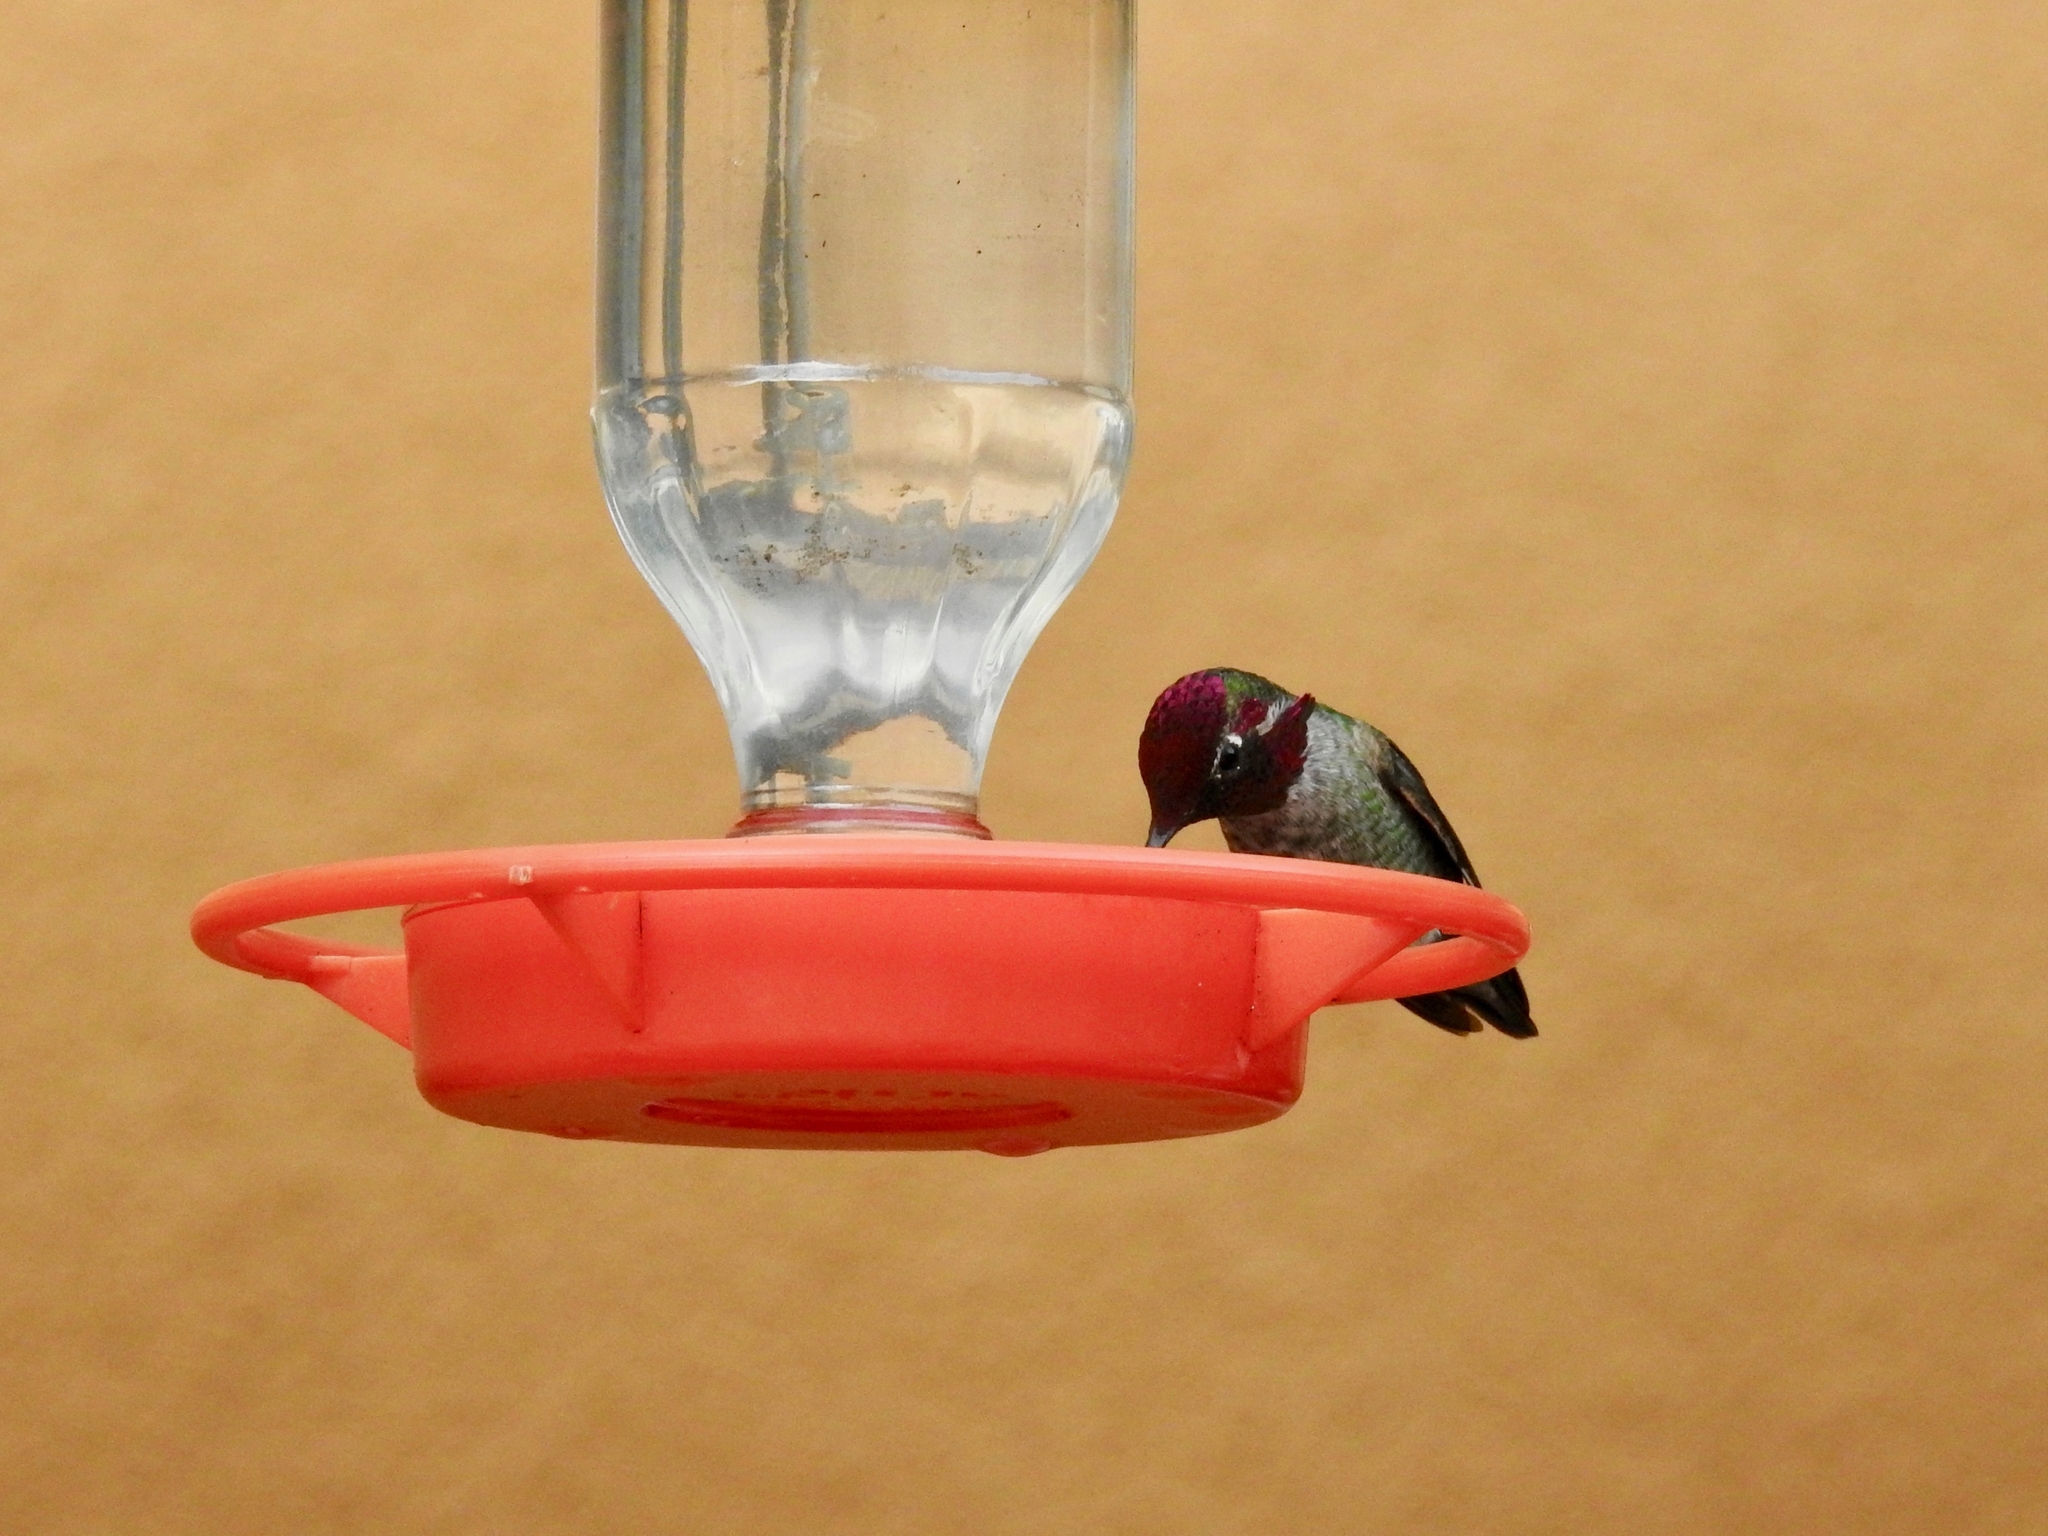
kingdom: Animalia
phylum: Chordata
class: Aves
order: Apodiformes
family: Trochilidae
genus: Calypte
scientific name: Calypte anna
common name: Anna's hummingbird
